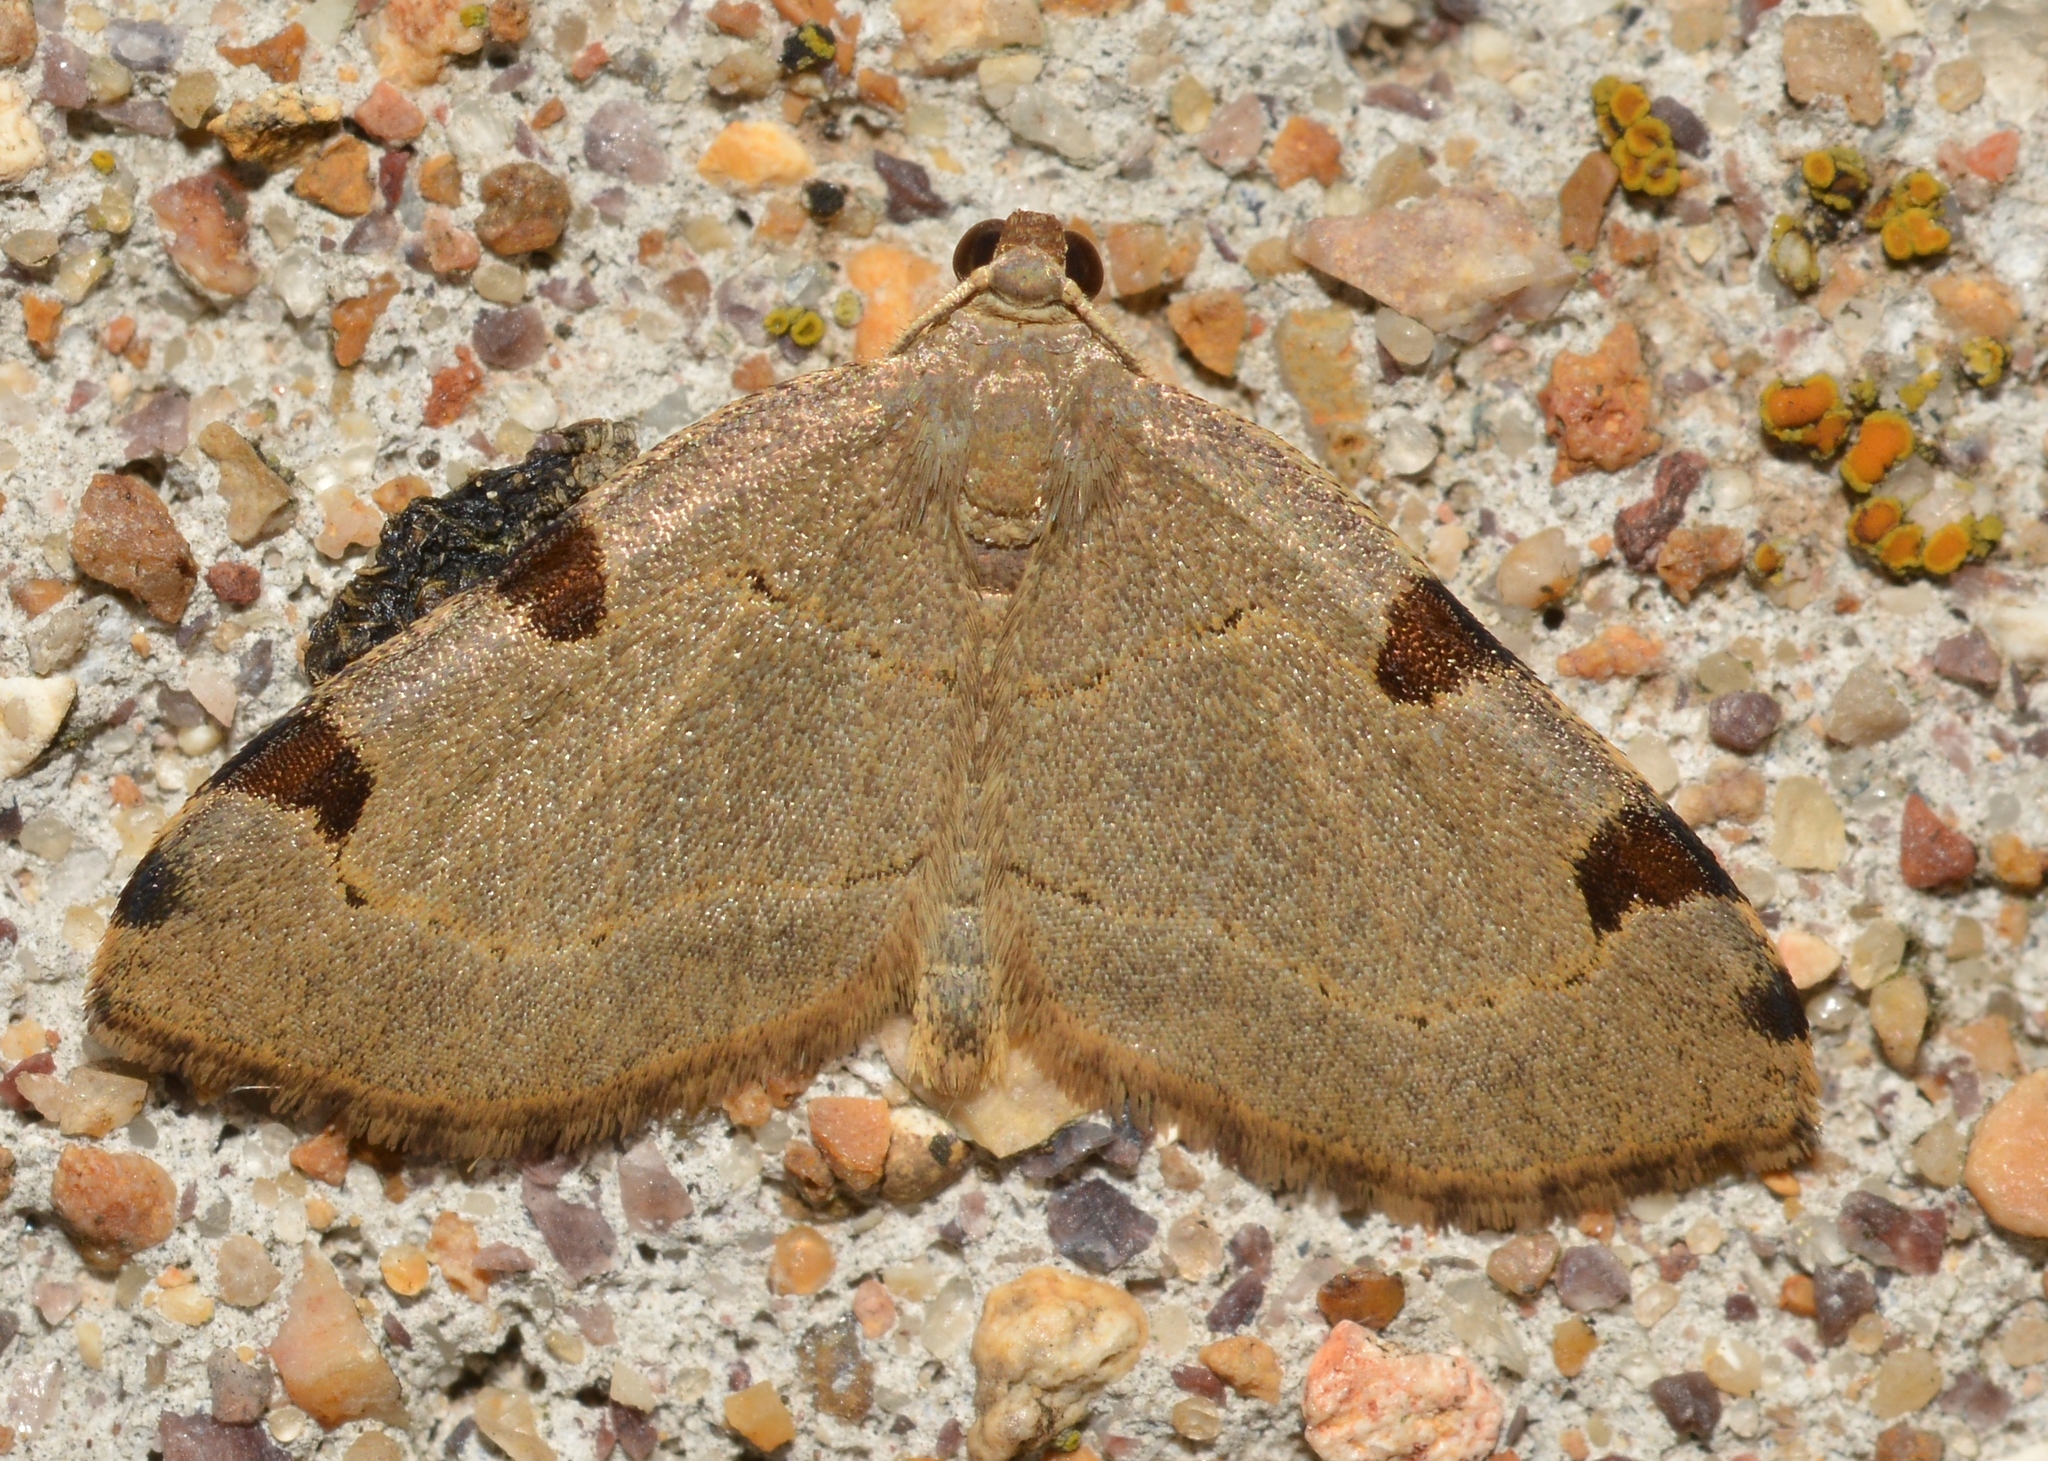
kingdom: Animalia
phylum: Arthropoda
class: Insecta
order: Lepidoptera
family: Geometridae
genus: Heterophleps
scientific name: Heterophleps triguttaria
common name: Three-spotted fillip
